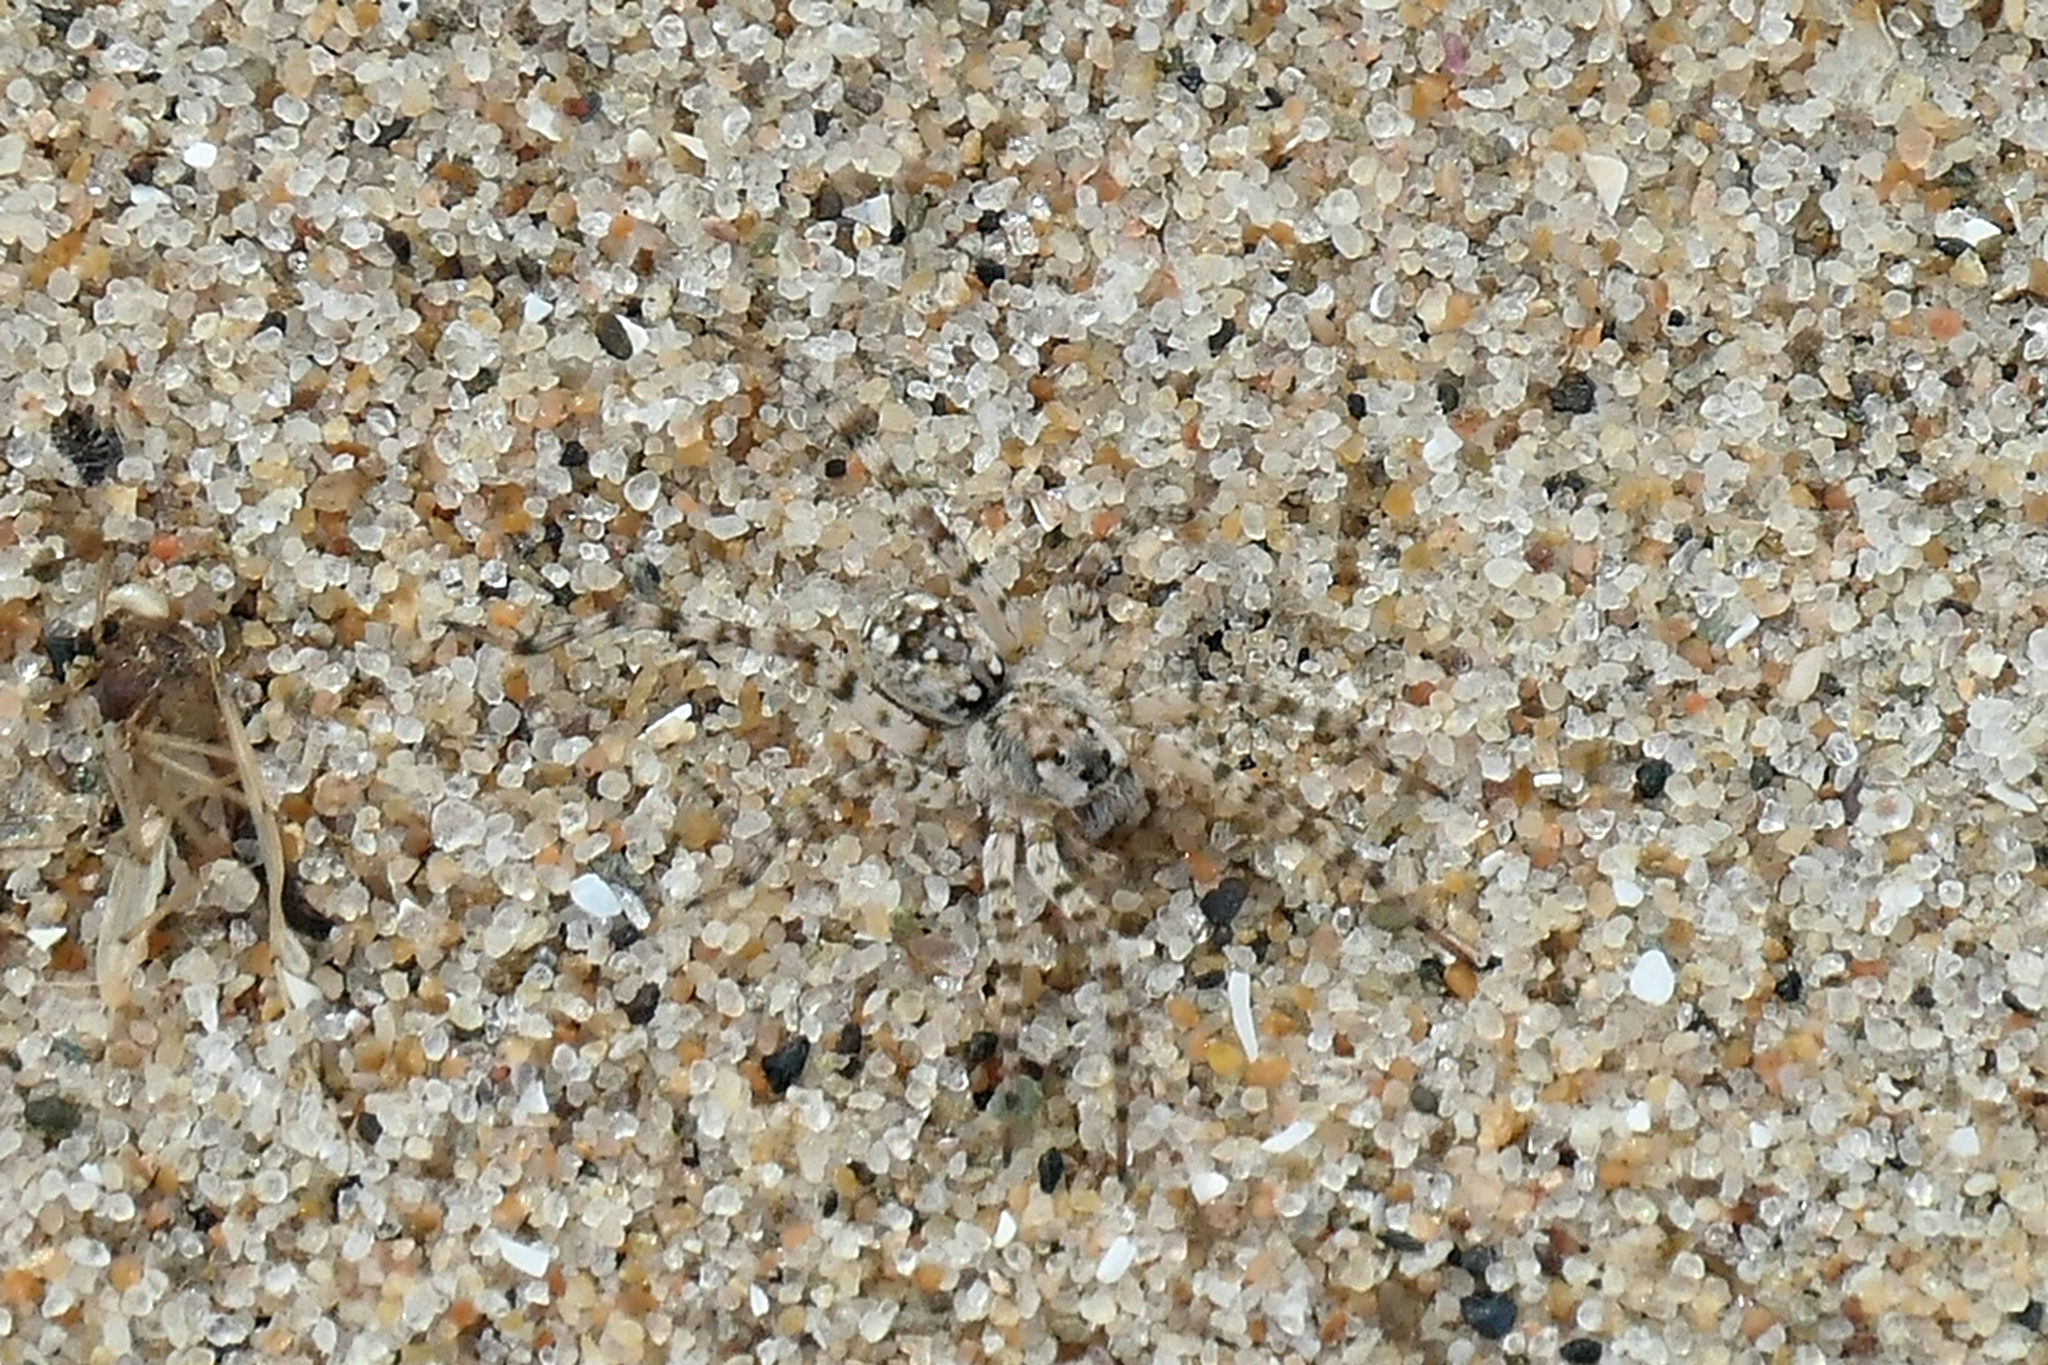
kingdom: Animalia
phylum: Arthropoda
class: Arachnida
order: Araneae
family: Lycosidae
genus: Arctosa
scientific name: Arctosa littoralis
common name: Wolf spiders
